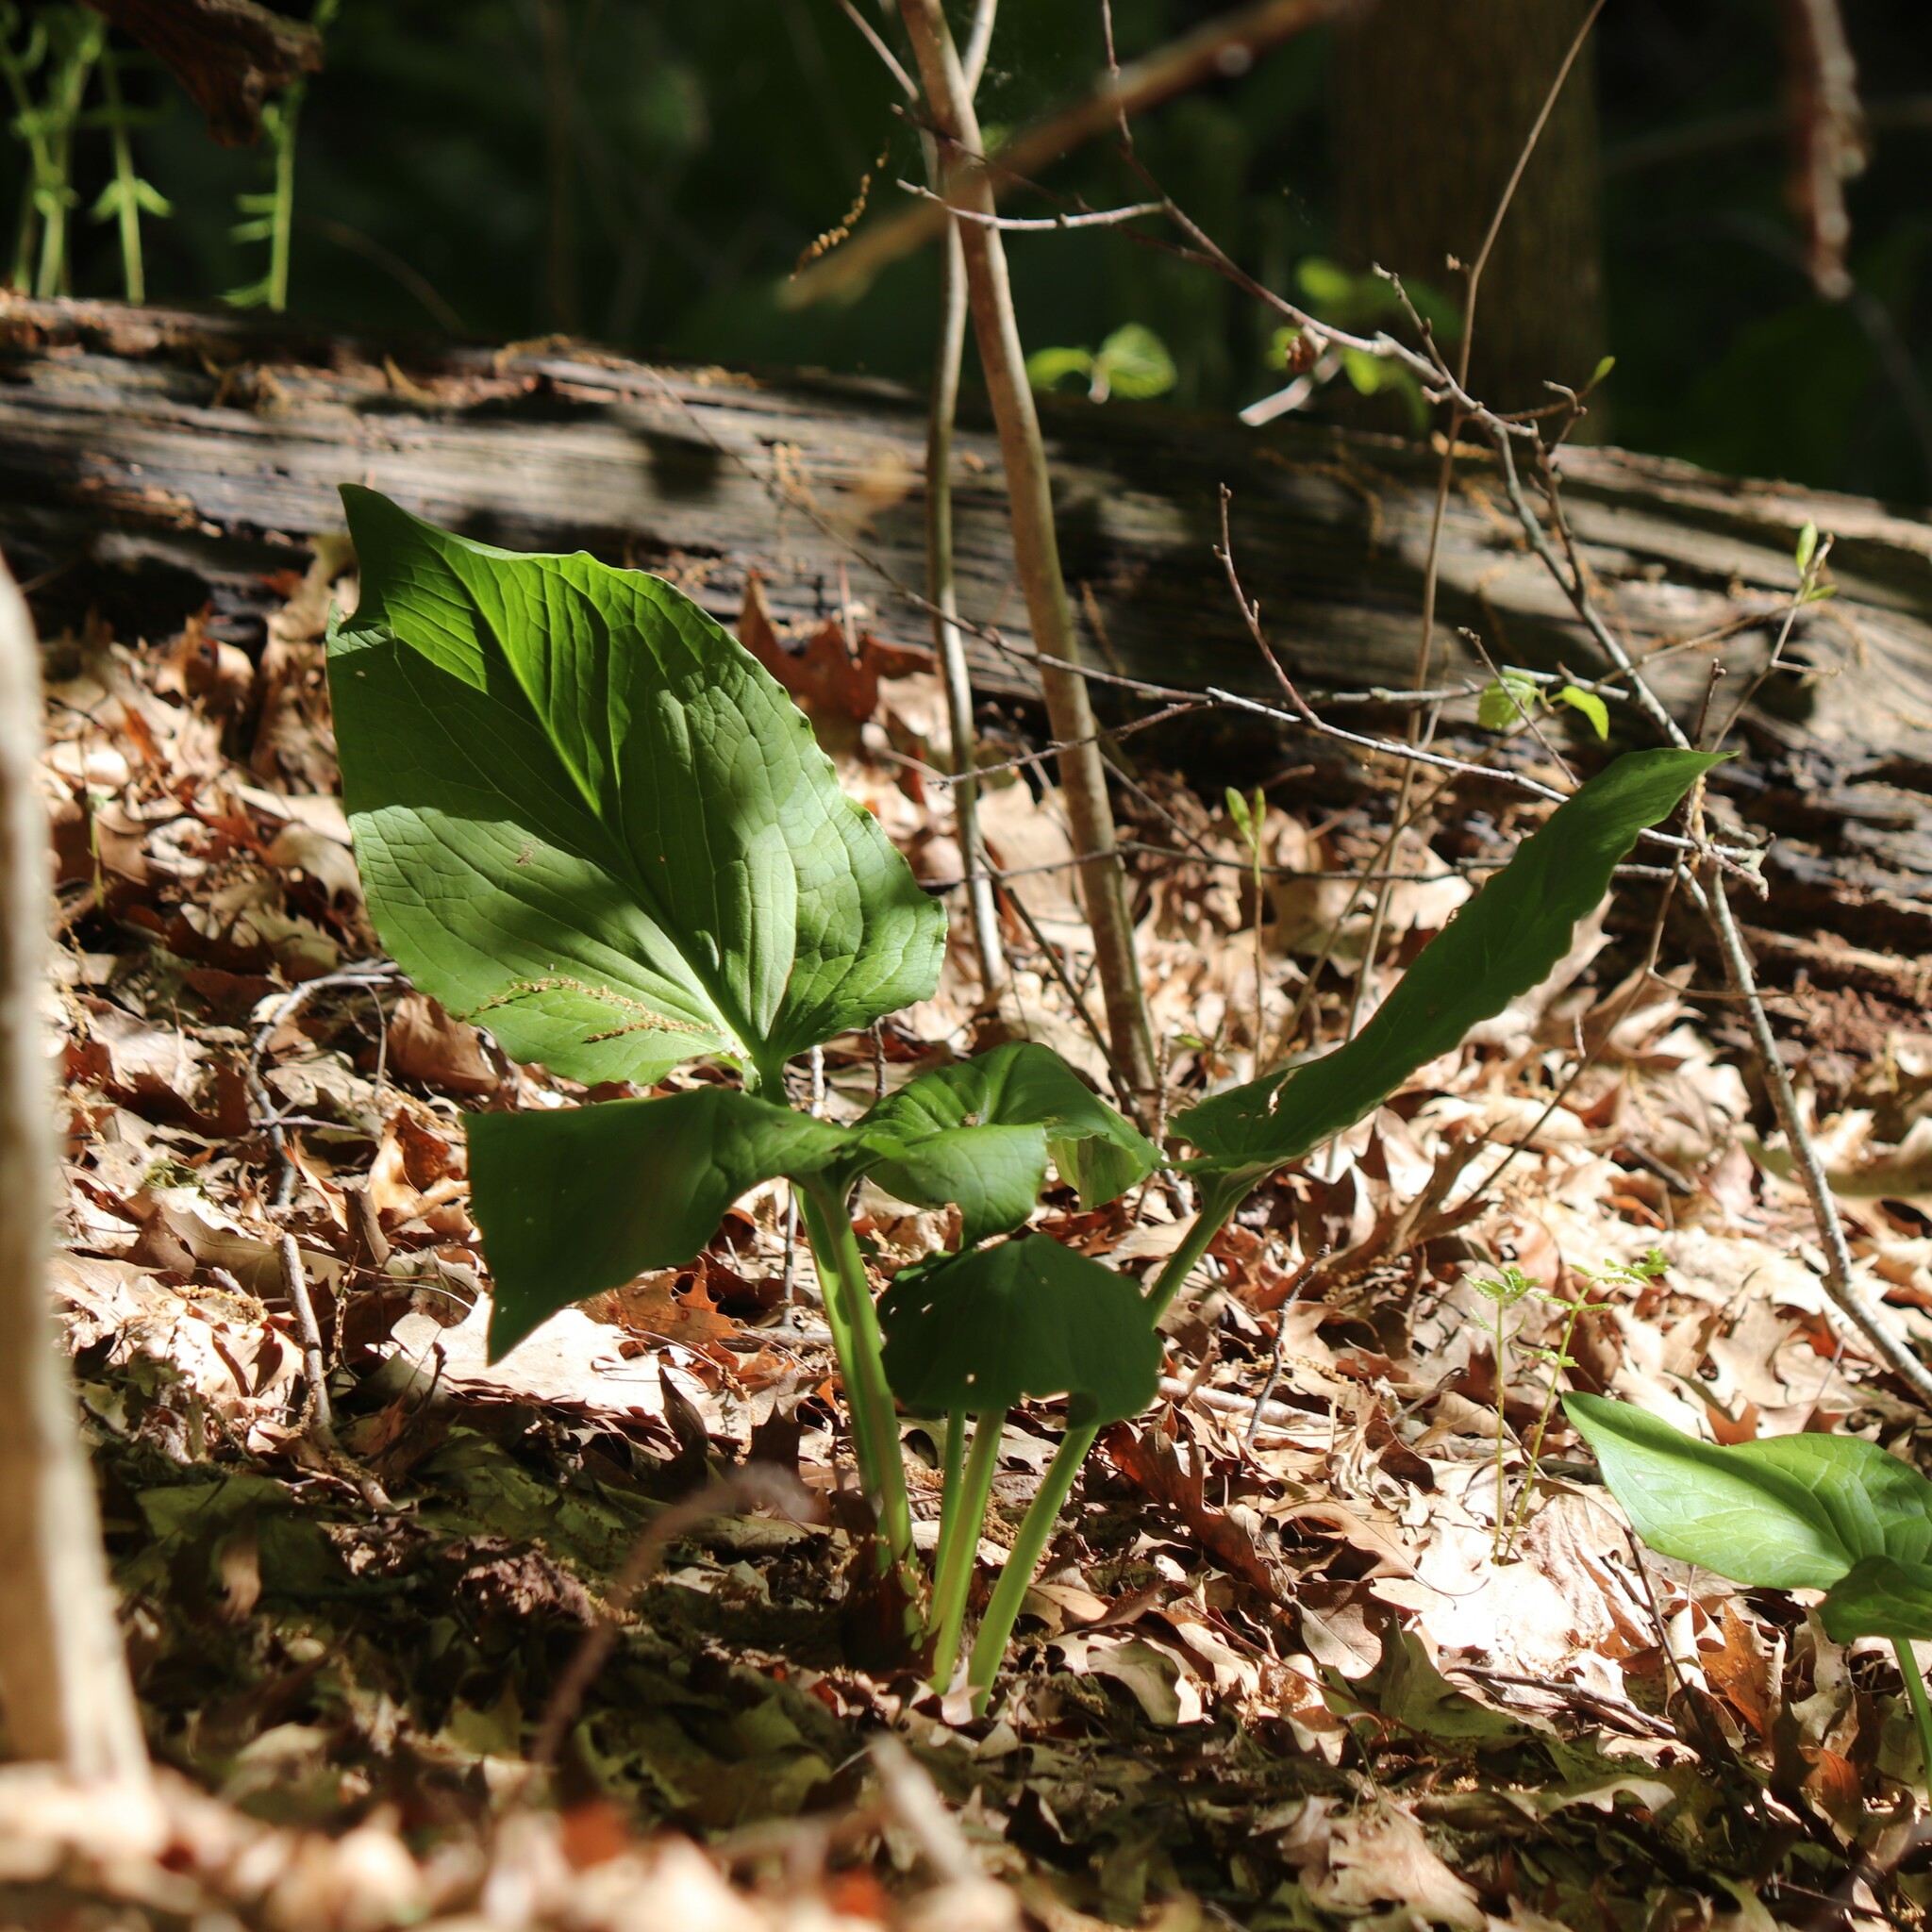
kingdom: Plantae
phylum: Tracheophyta
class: Liliopsida
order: Alismatales
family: Araceae
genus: Symplocarpus
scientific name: Symplocarpus foetidus
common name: Eastern skunk cabbage
